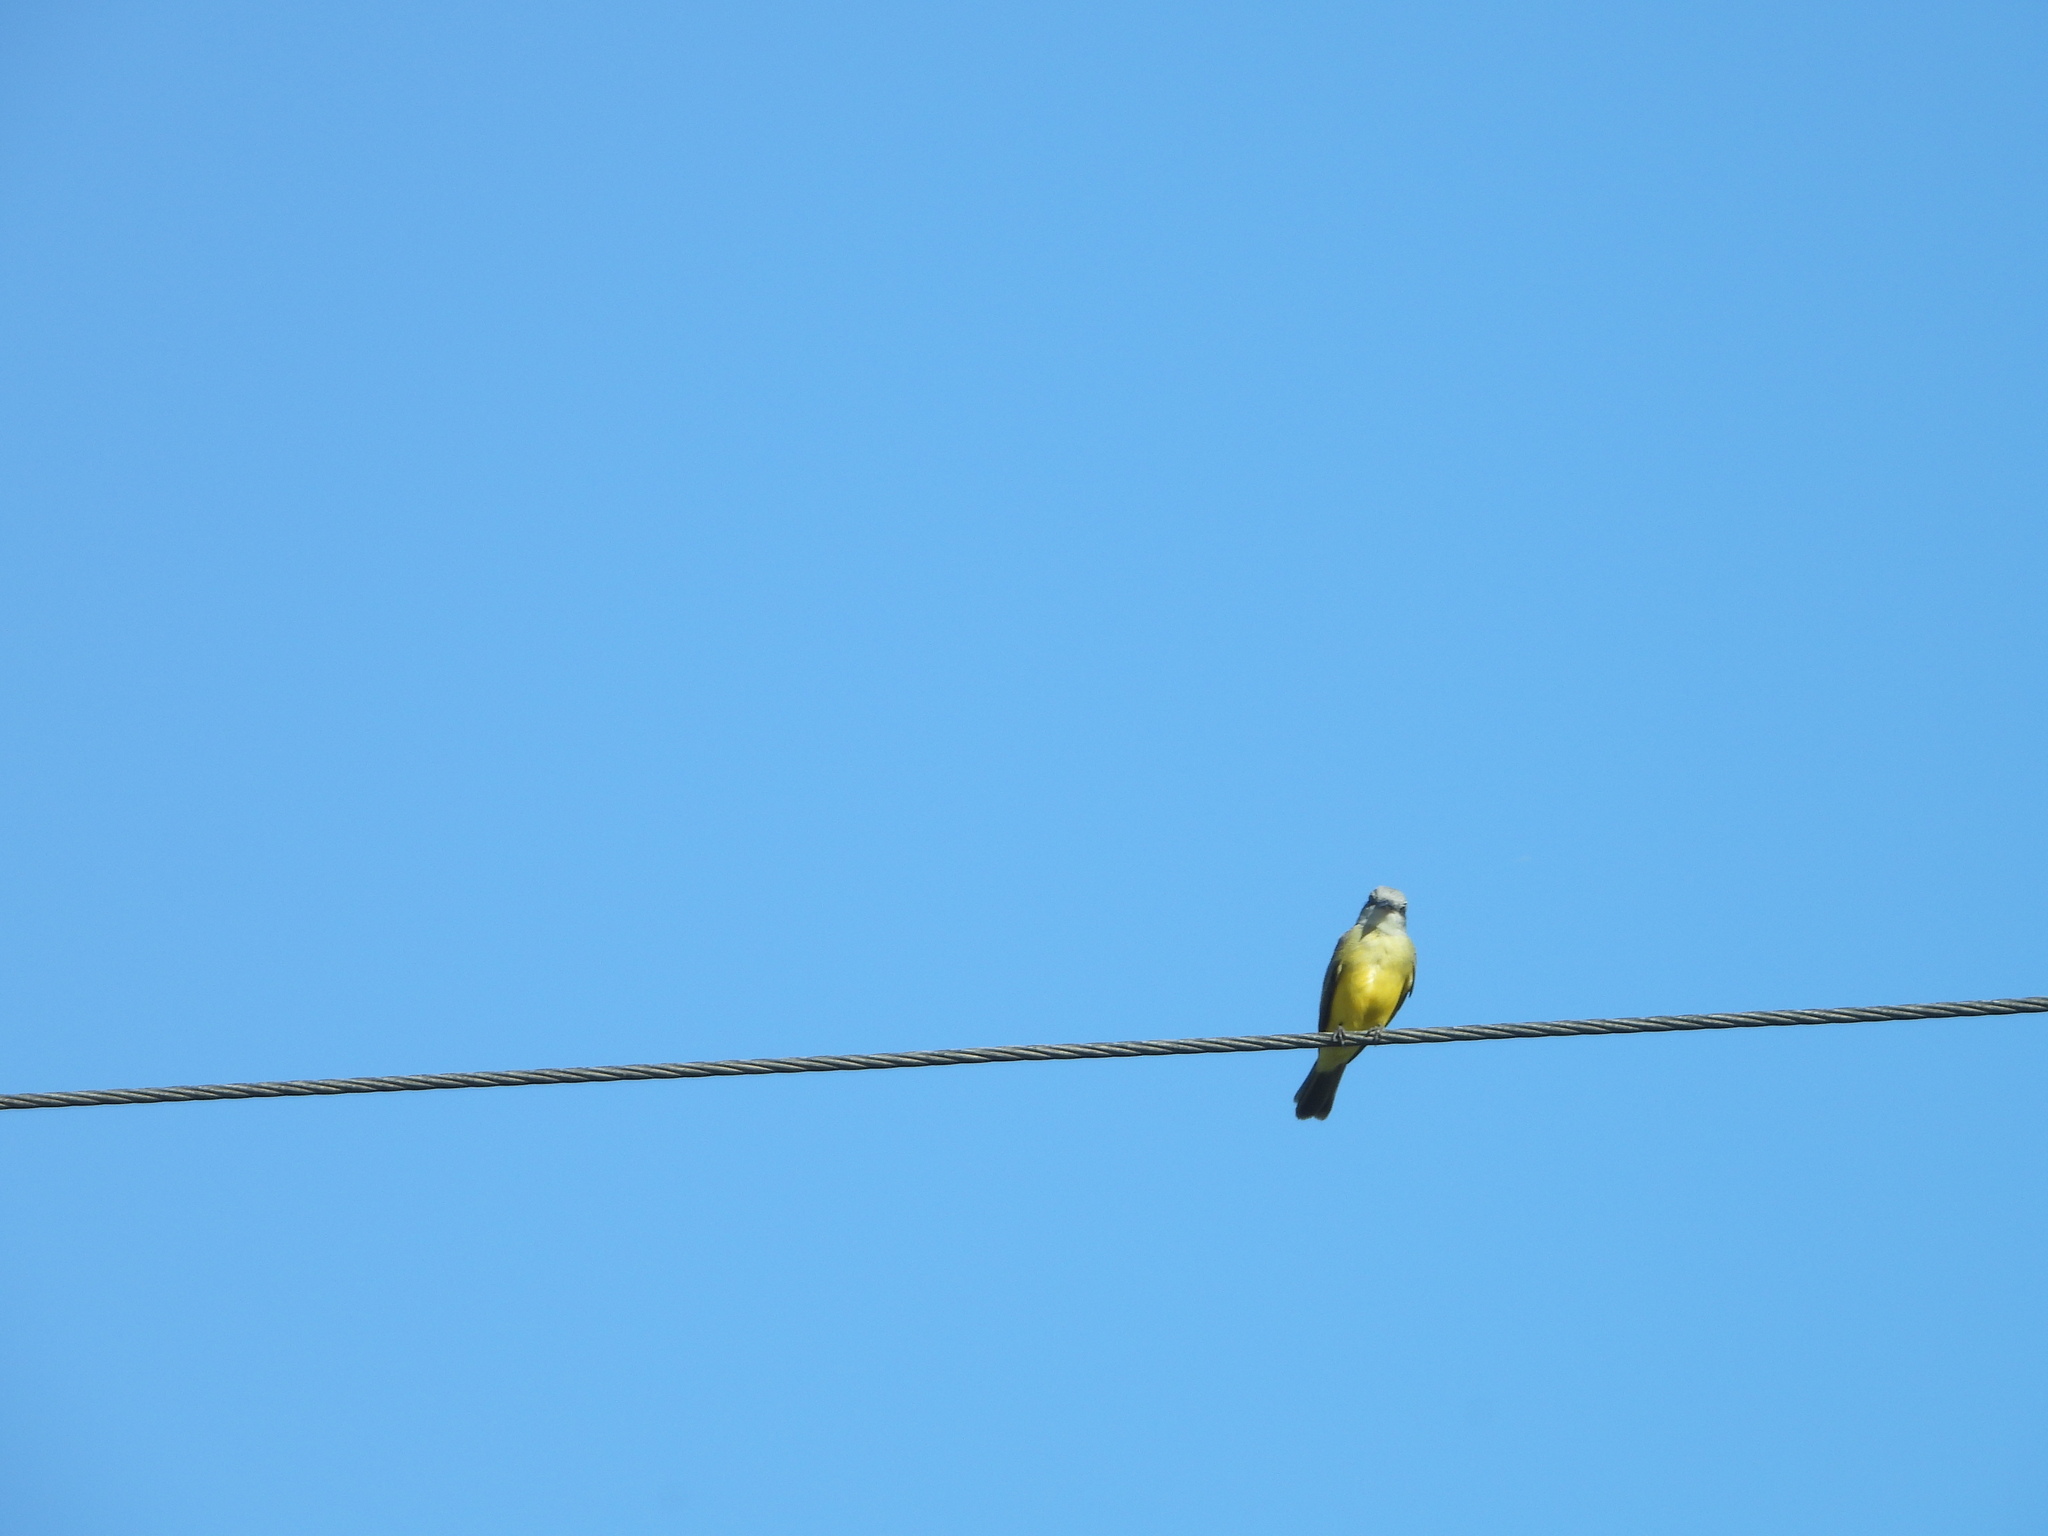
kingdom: Animalia
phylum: Chordata
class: Aves
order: Passeriformes
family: Tyrannidae
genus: Tyrannus
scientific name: Tyrannus melancholicus
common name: Tropical kingbird
